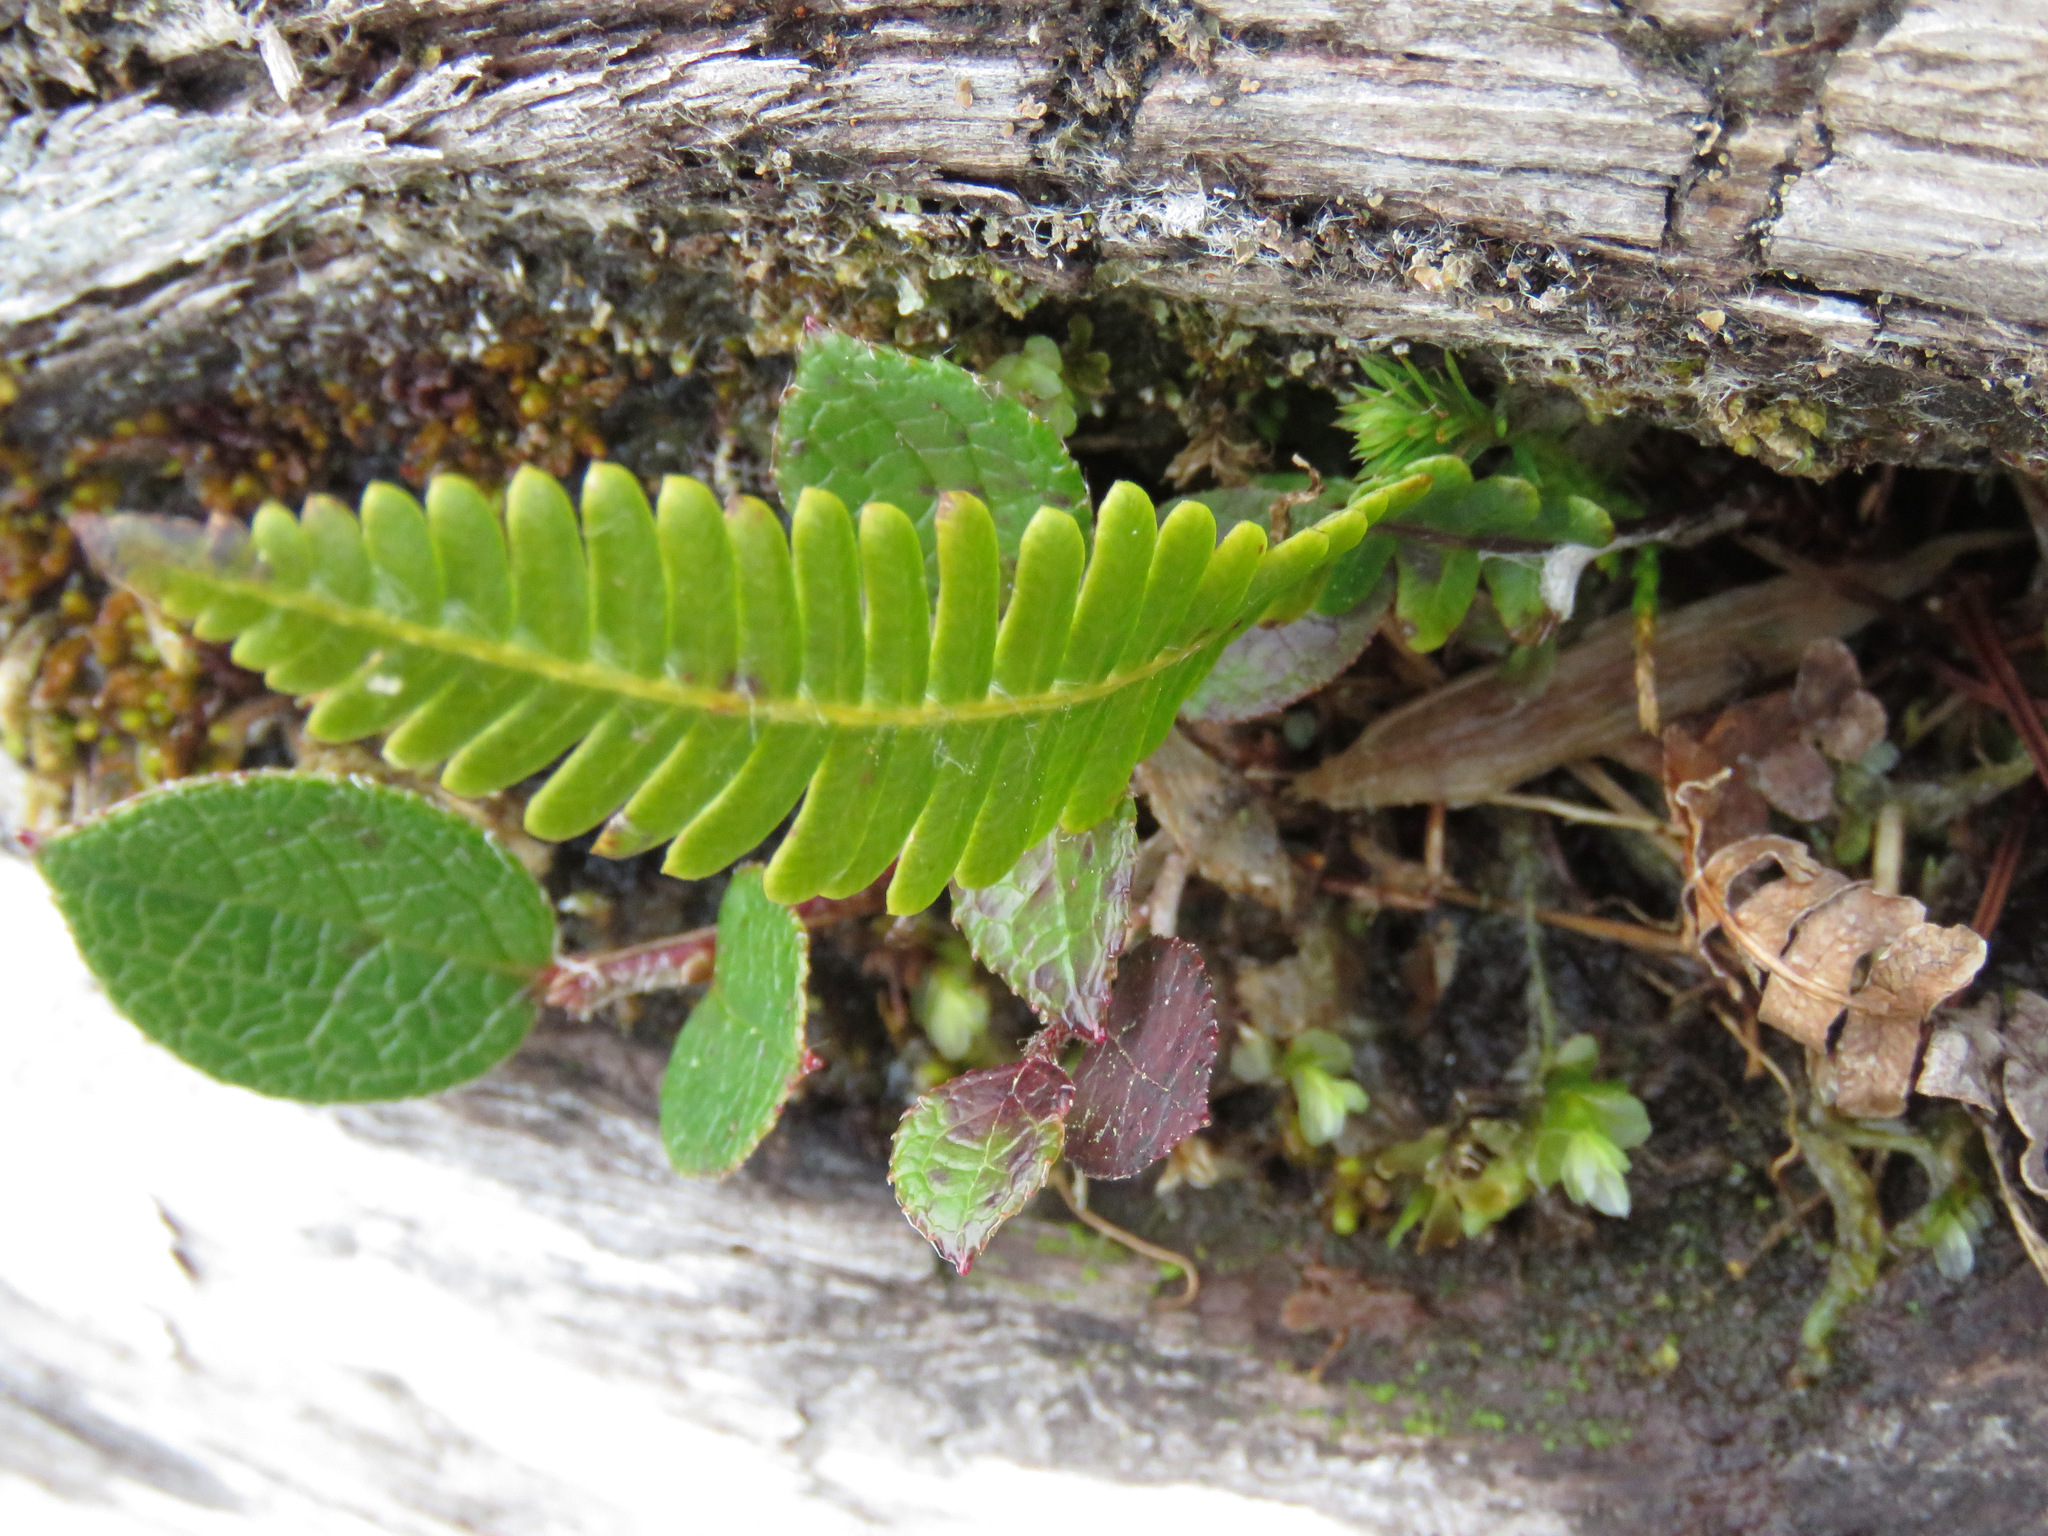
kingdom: Plantae
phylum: Tracheophyta
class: Polypodiopsida
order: Polypodiales
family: Blechnaceae
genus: Struthiopteris
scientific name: Struthiopteris spicant
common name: Deer fern
